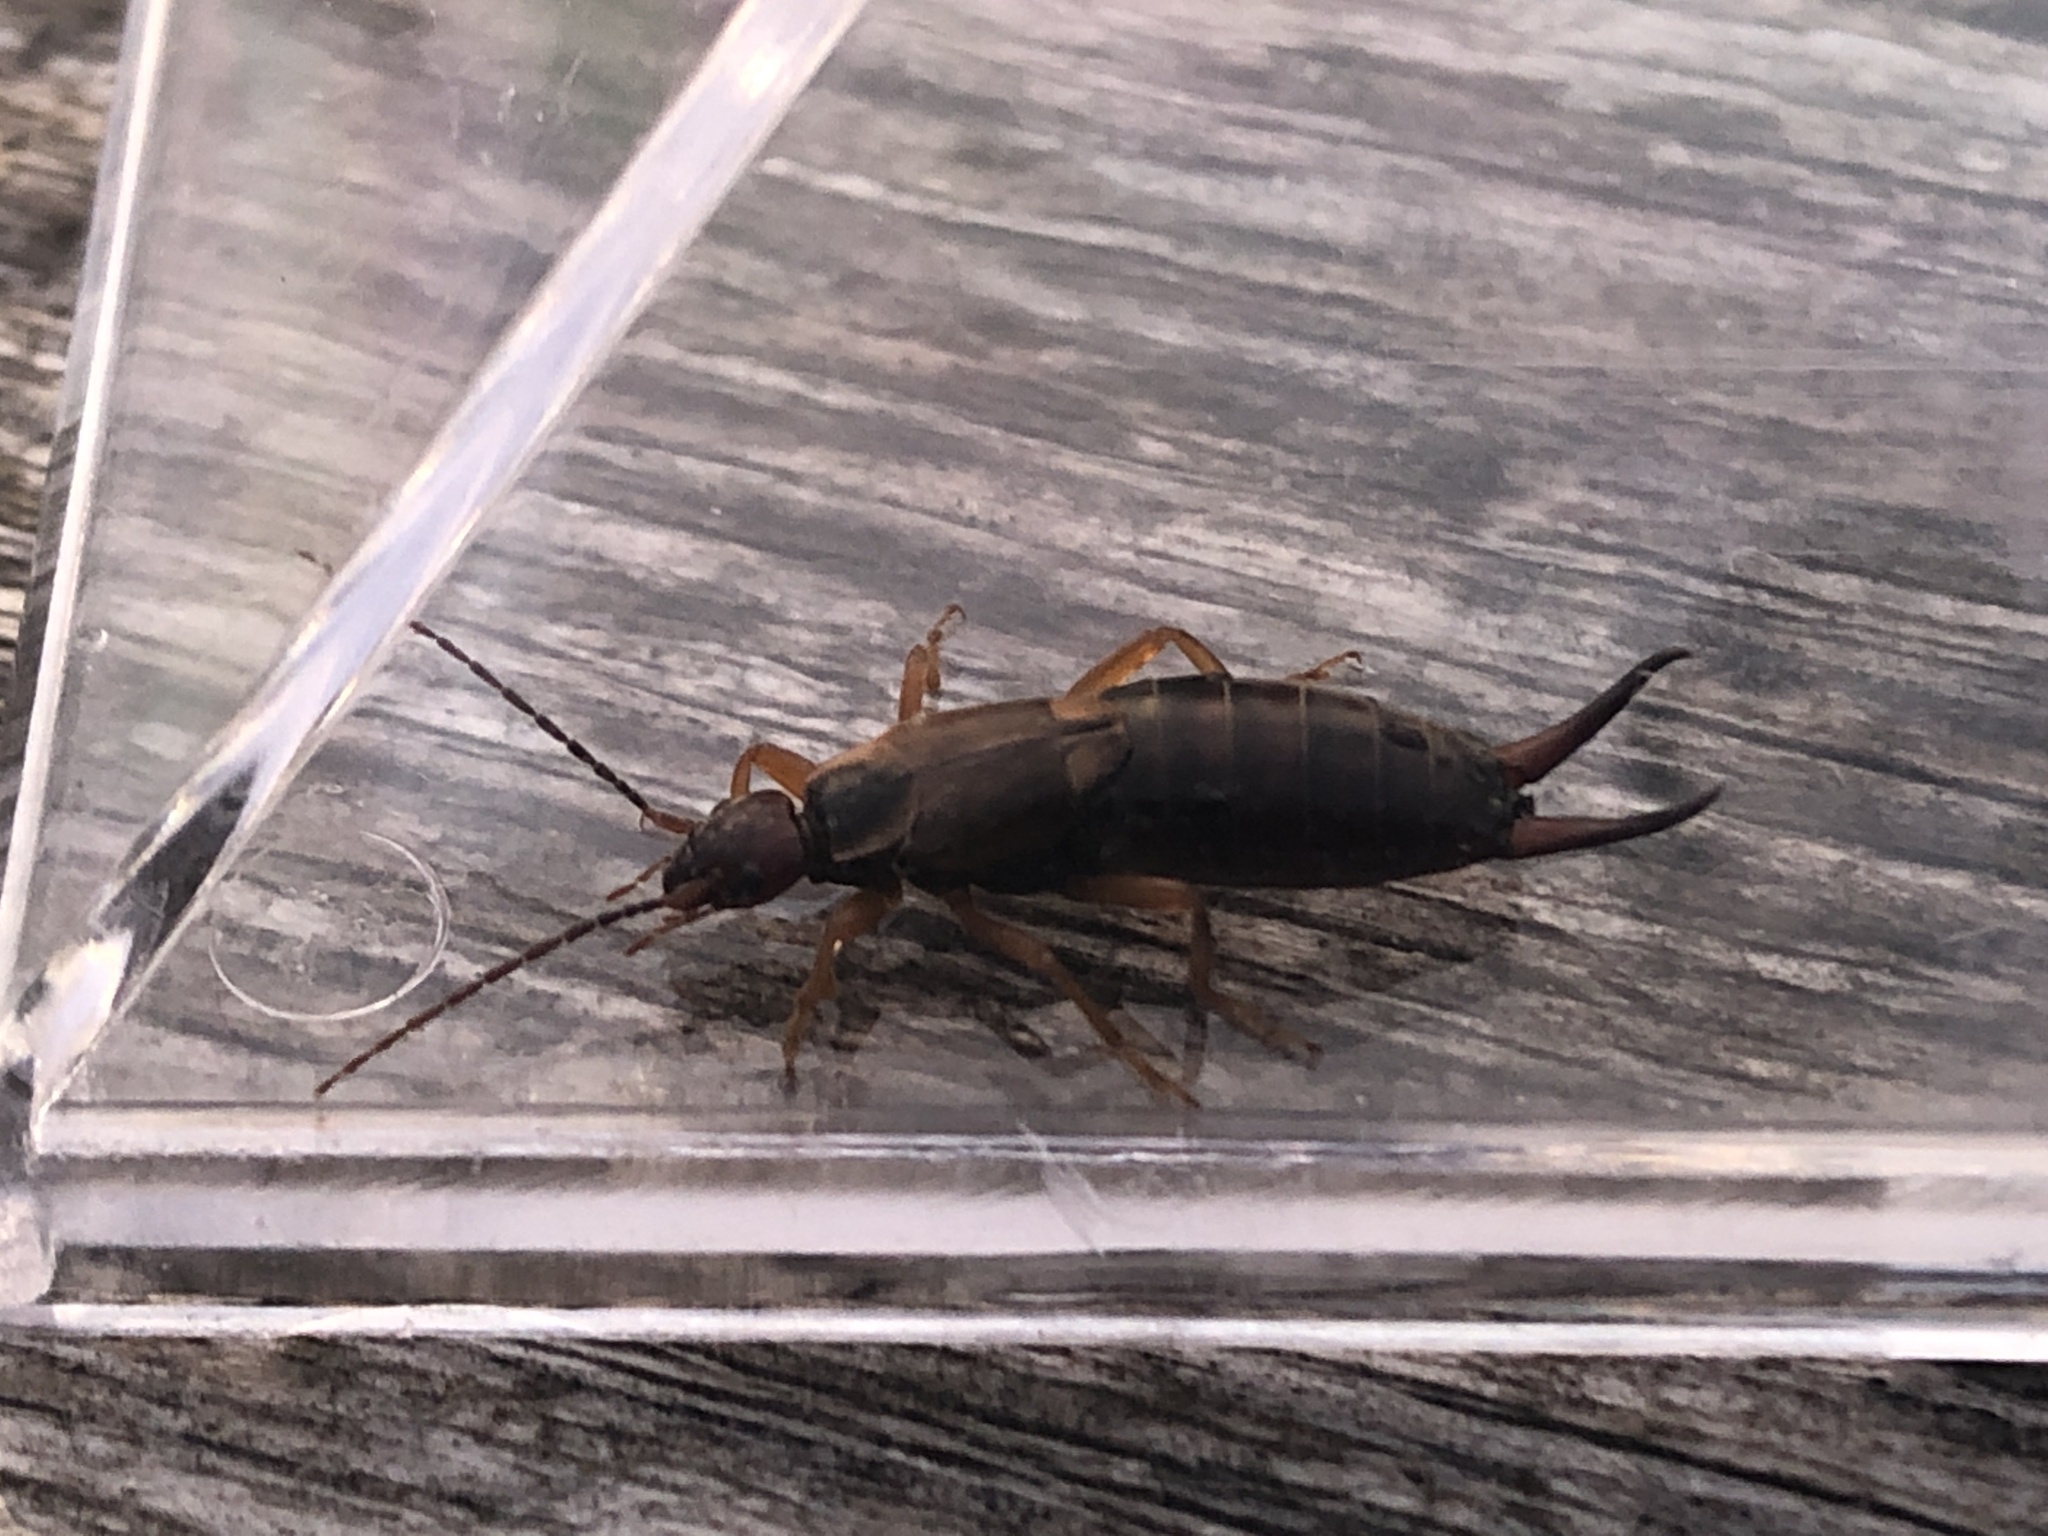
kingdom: Animalia
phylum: Arthropoda
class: Insecta
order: Dermaptera
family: Forficulidae
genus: Forficula
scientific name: Forficula
